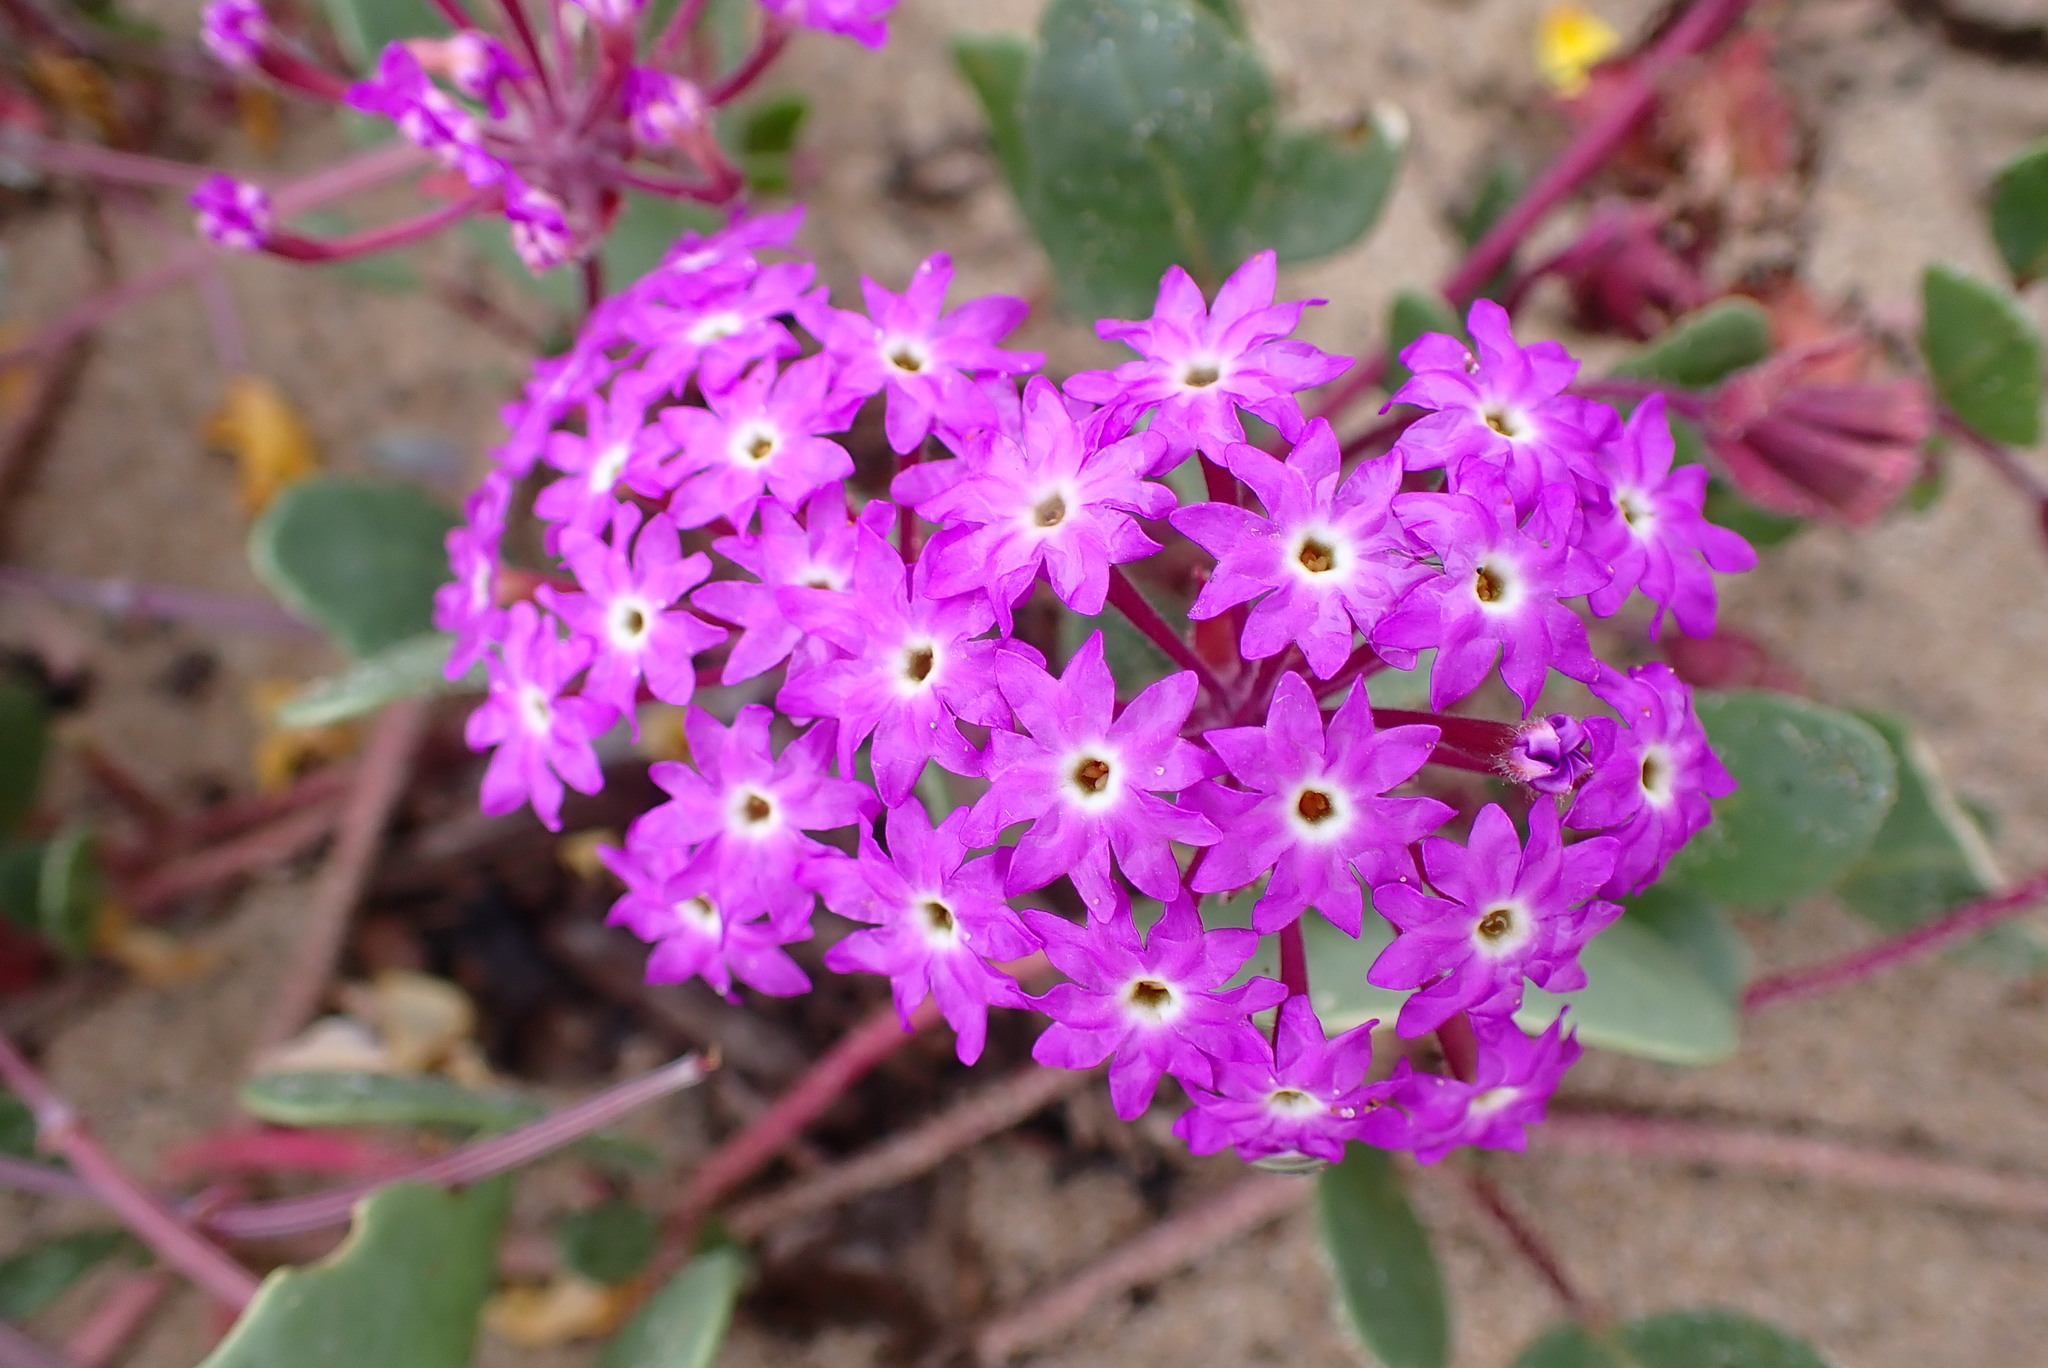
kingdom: Plantae
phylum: Tracheophyta
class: Magnoliopsida
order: Caryophyllales
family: Nyctaginaceae
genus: Abronia
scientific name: Abronia umbellata
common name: Sand-verbena
